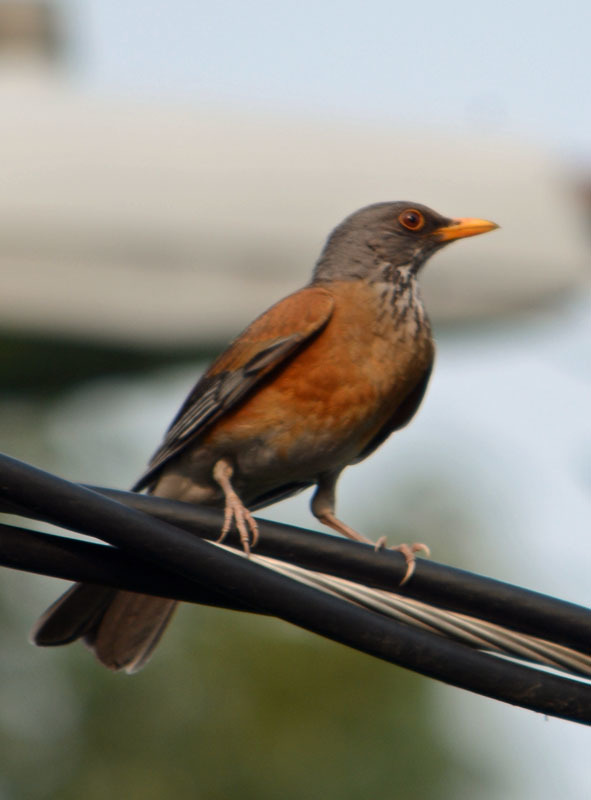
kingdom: Animalia
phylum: Chordata
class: Aves
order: Passeriformes
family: Turdidae
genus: Turdus
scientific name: Turdus rufopalliatus
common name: Rufous-backed robin
